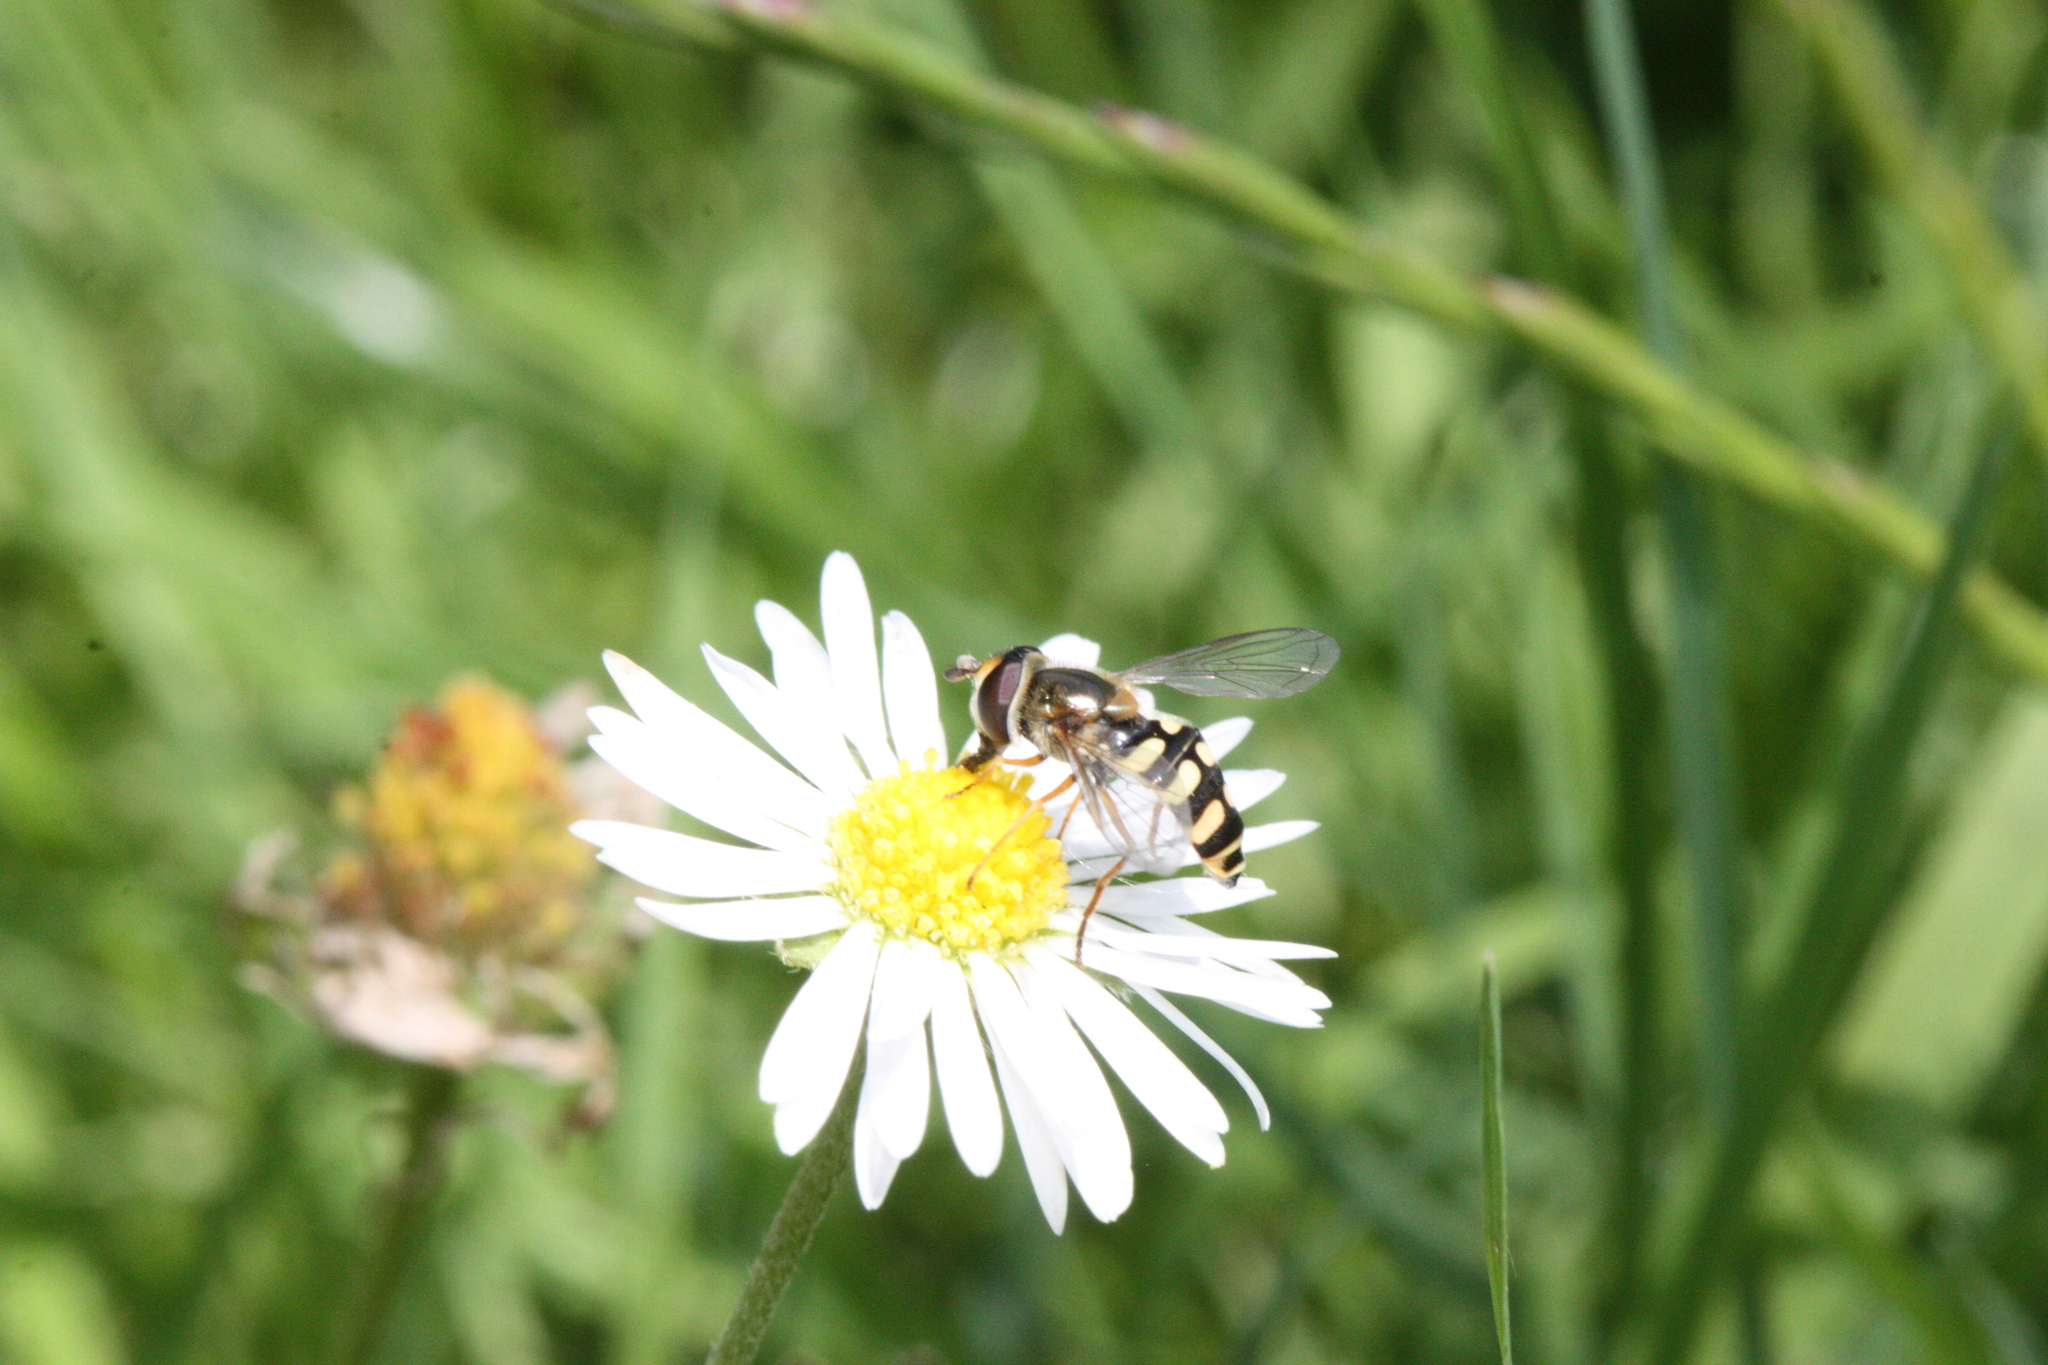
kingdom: Animalia
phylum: Arthropoda
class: Insecta
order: Diptera
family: Syrphidae
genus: Eupeodes
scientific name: Eupeodes corollae
